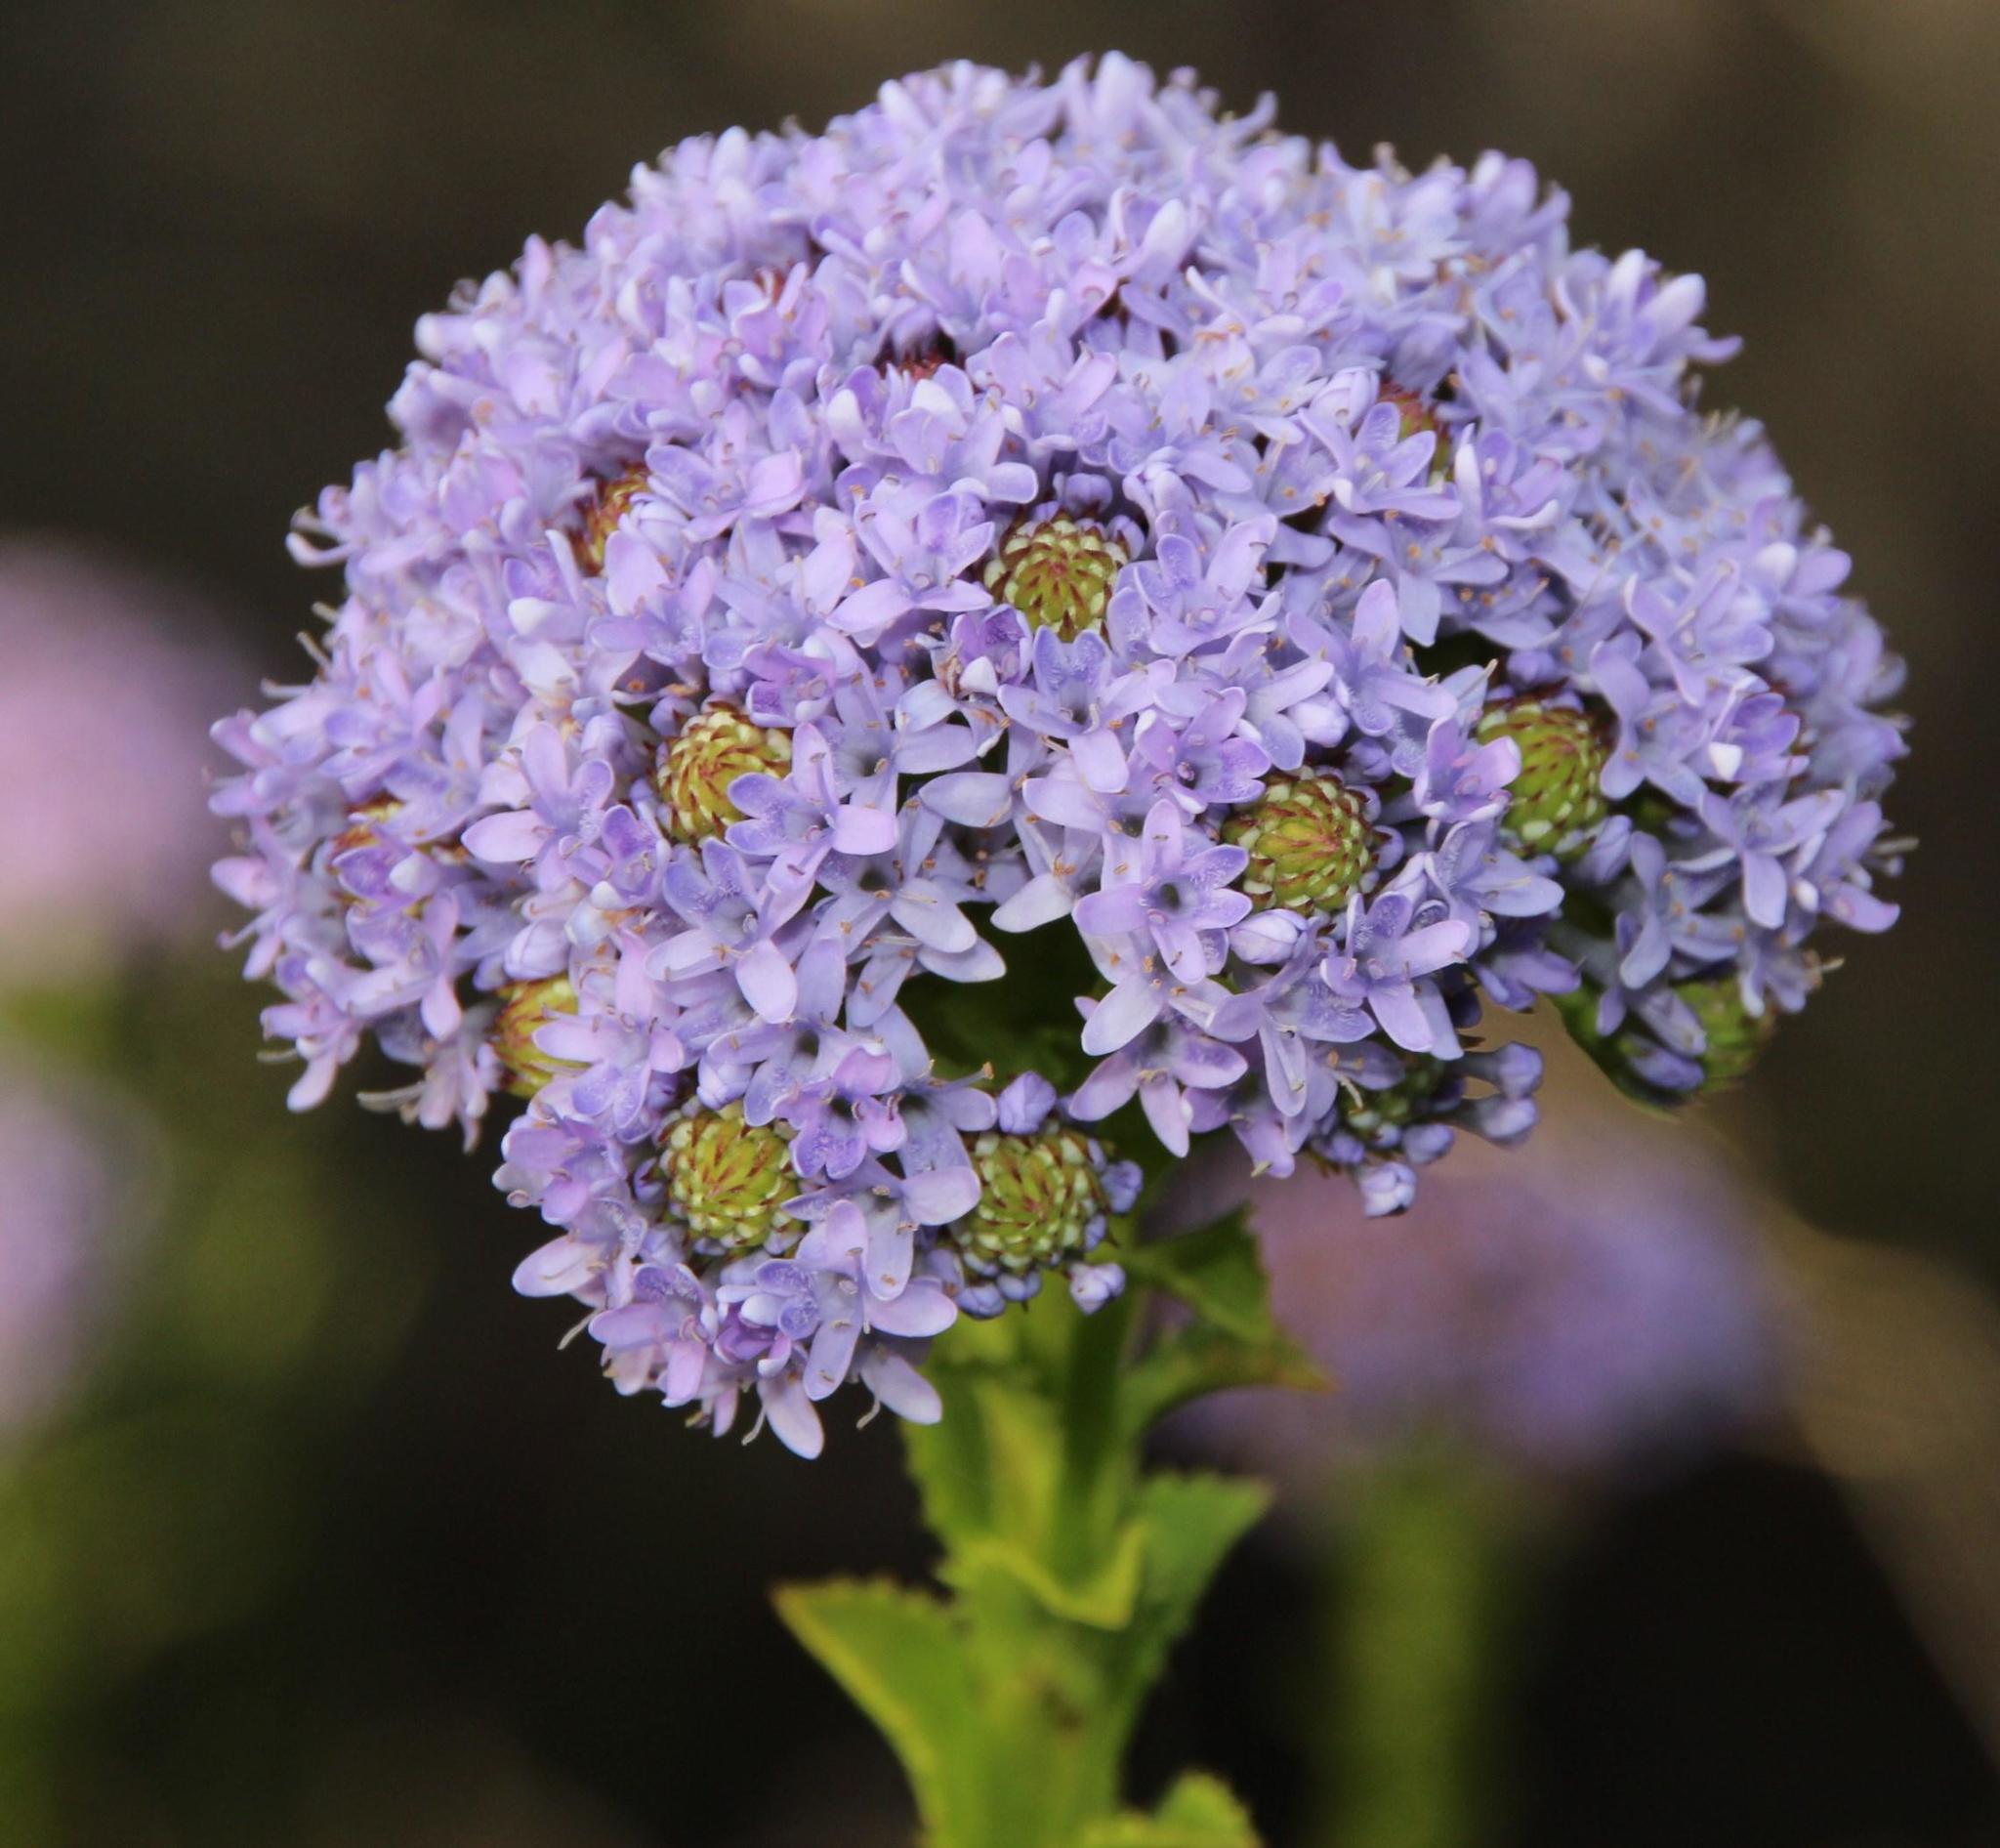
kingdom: Plantae
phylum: Tracheophyta
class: Magnoliopsida
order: Lamiales
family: Scrophulariaceae
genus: Pseudoselago
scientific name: Pseudoselago serrata
